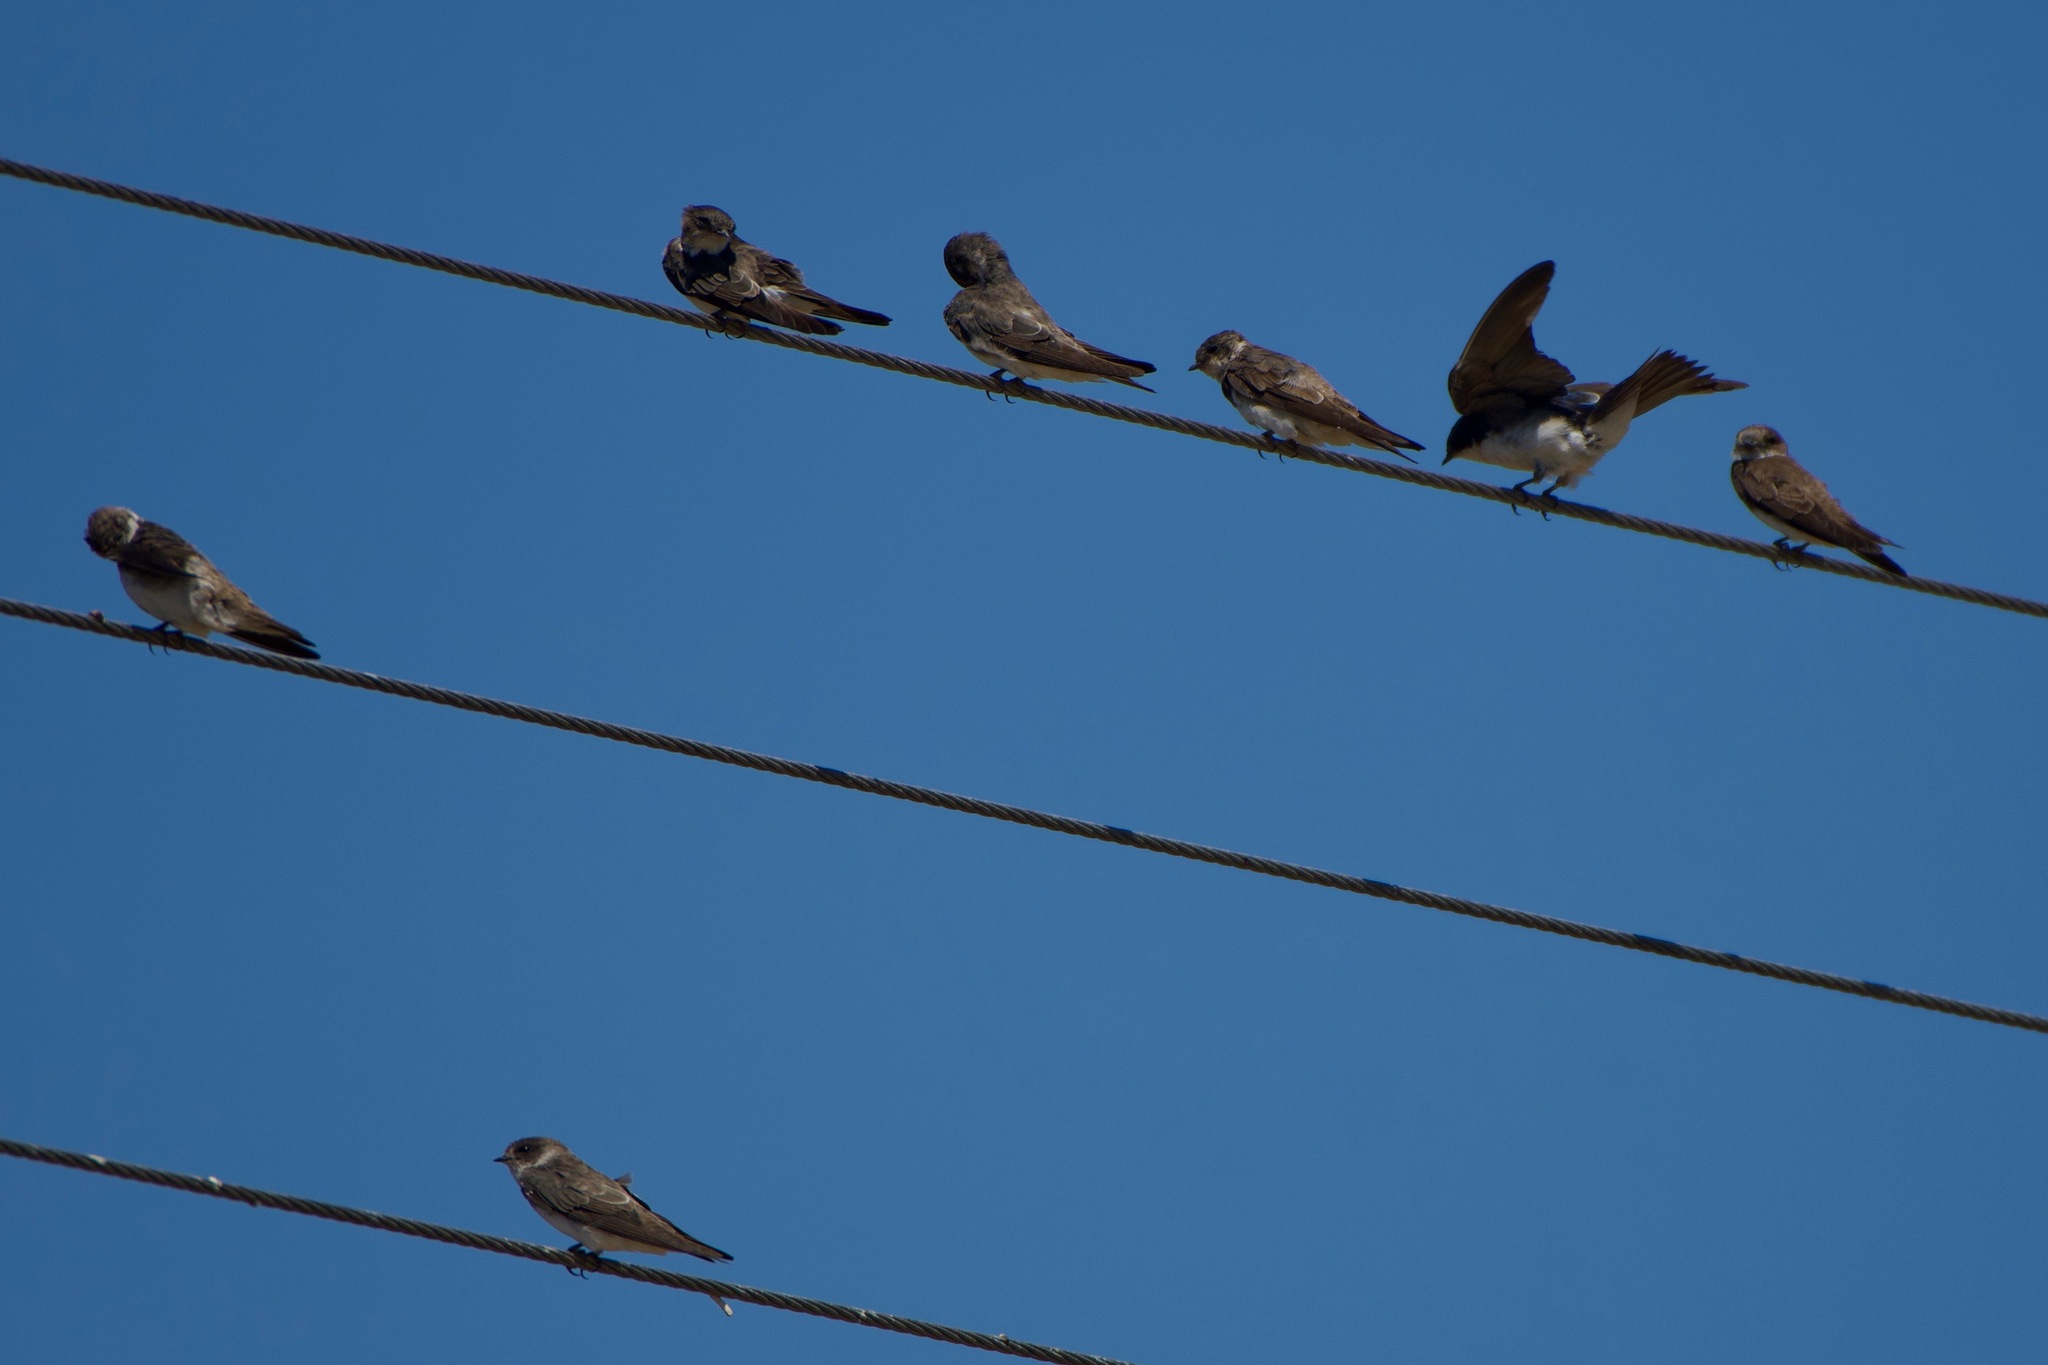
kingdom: Animalia
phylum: Chordata
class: Aves
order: Passeriformes
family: Hirundinidae
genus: Riparia
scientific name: Riparia riparia
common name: Sand martin
